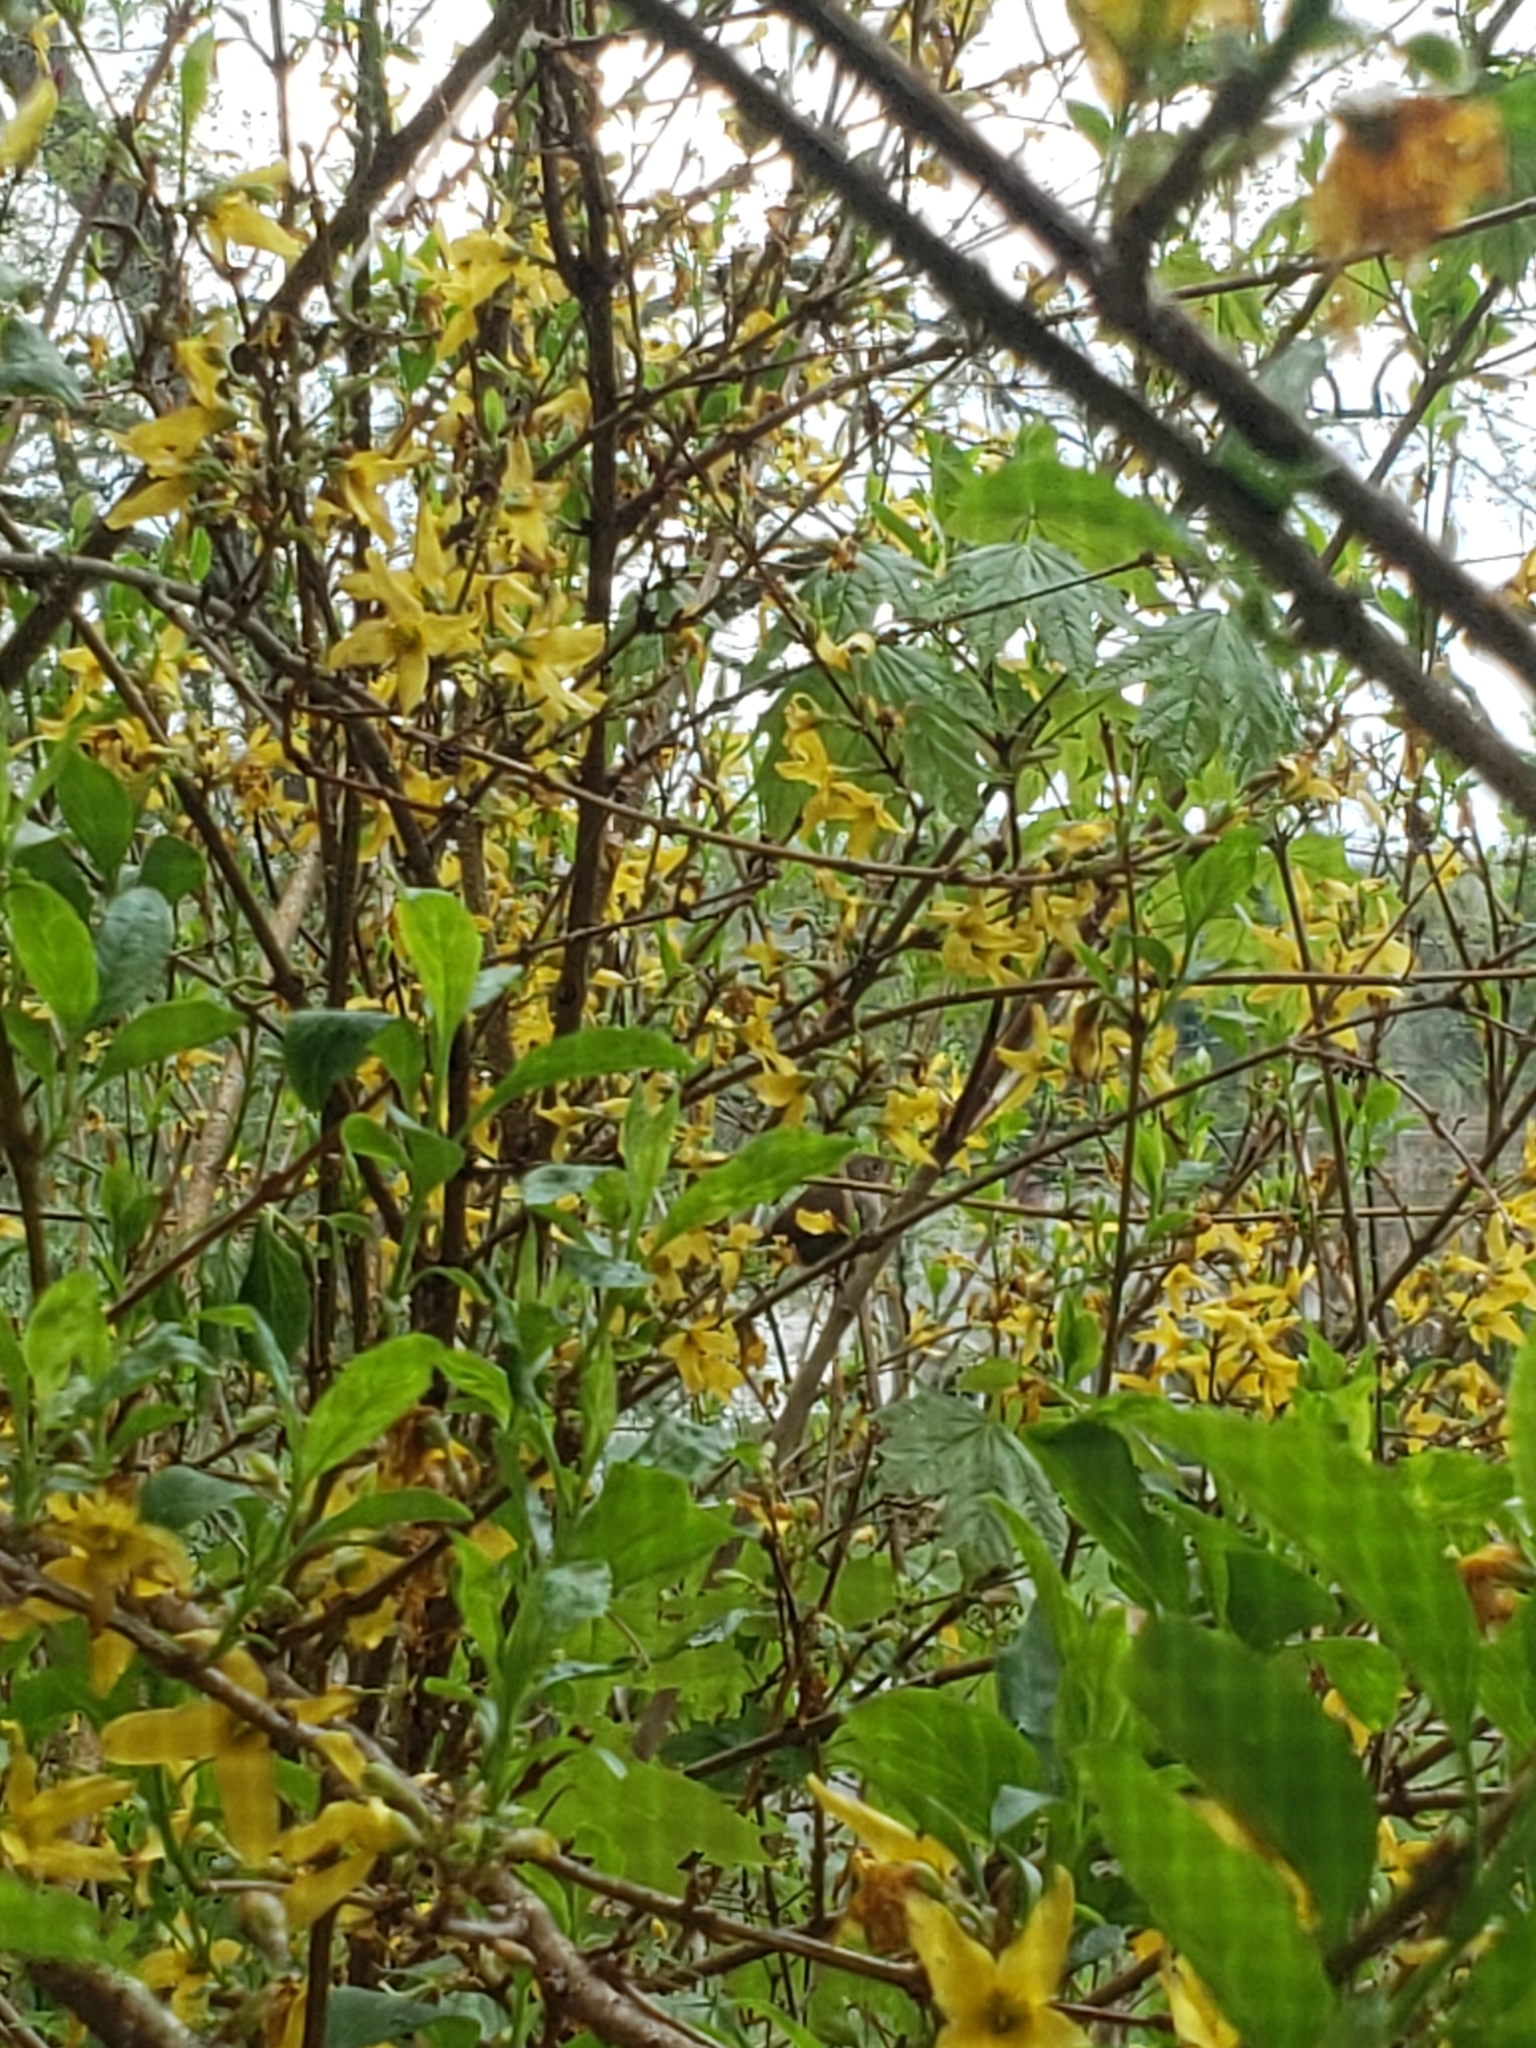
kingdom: Animalia
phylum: Chordata
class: Aves
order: Passeriformes
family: Troglodytidae
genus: Troglodytes
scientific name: Troglodytes aedon
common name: House wren
